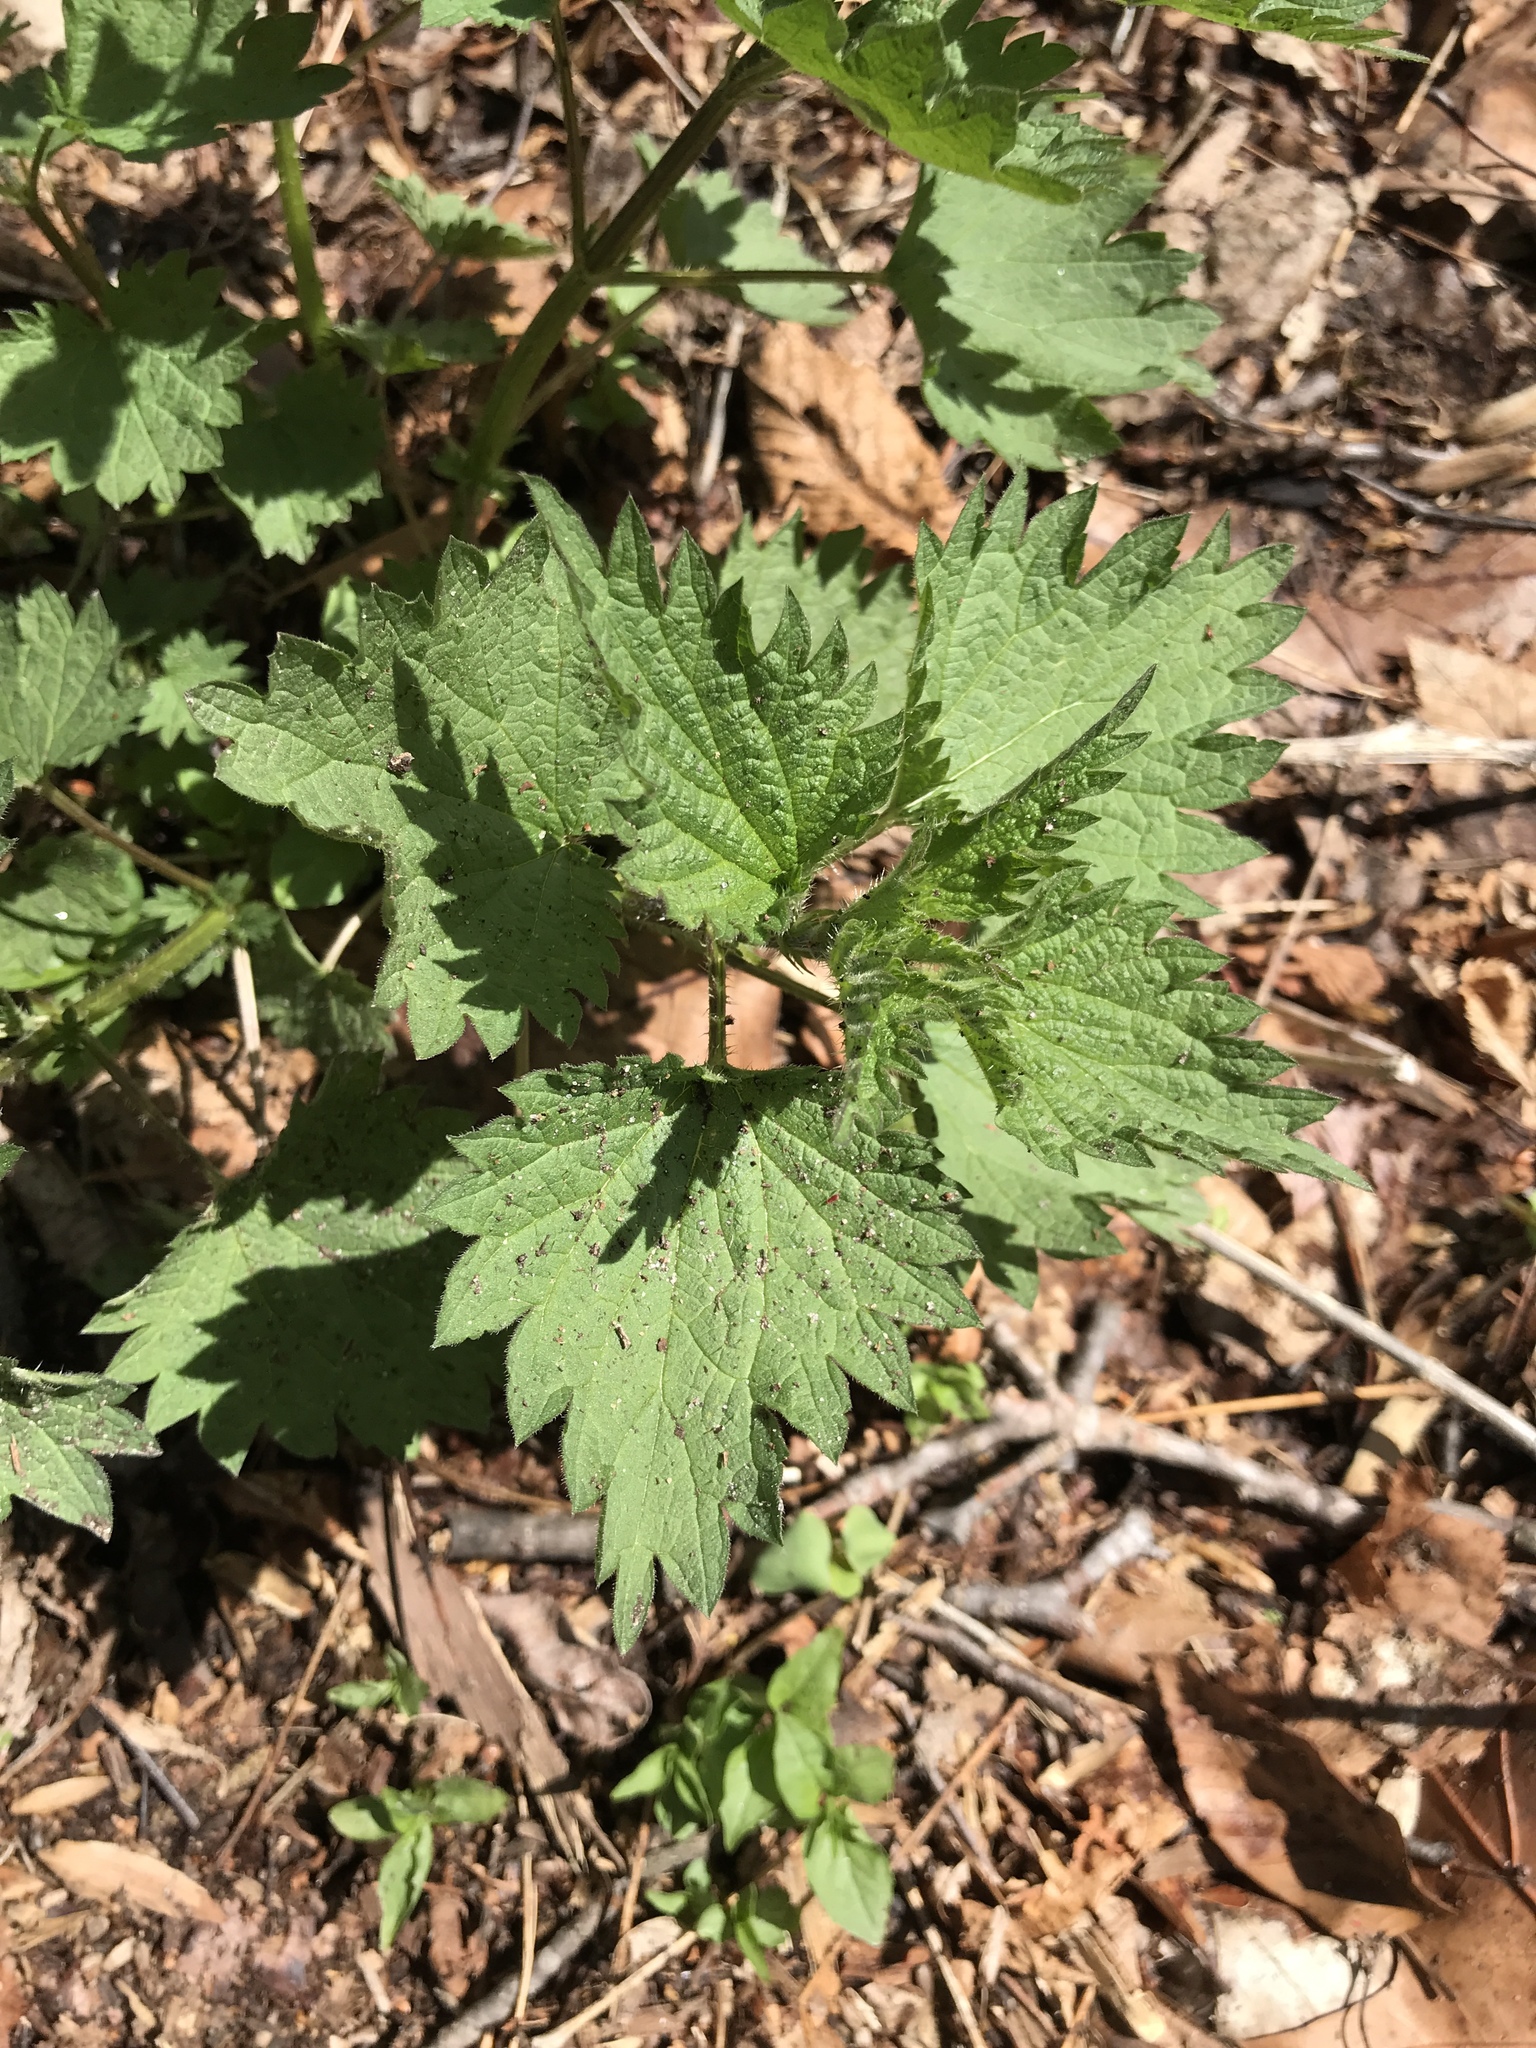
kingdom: Plantae
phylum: Tracheophyta
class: Magnoliopsida
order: Rosales
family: Urticaceae
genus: Urtica
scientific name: Urtica dioica
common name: Common nettle
